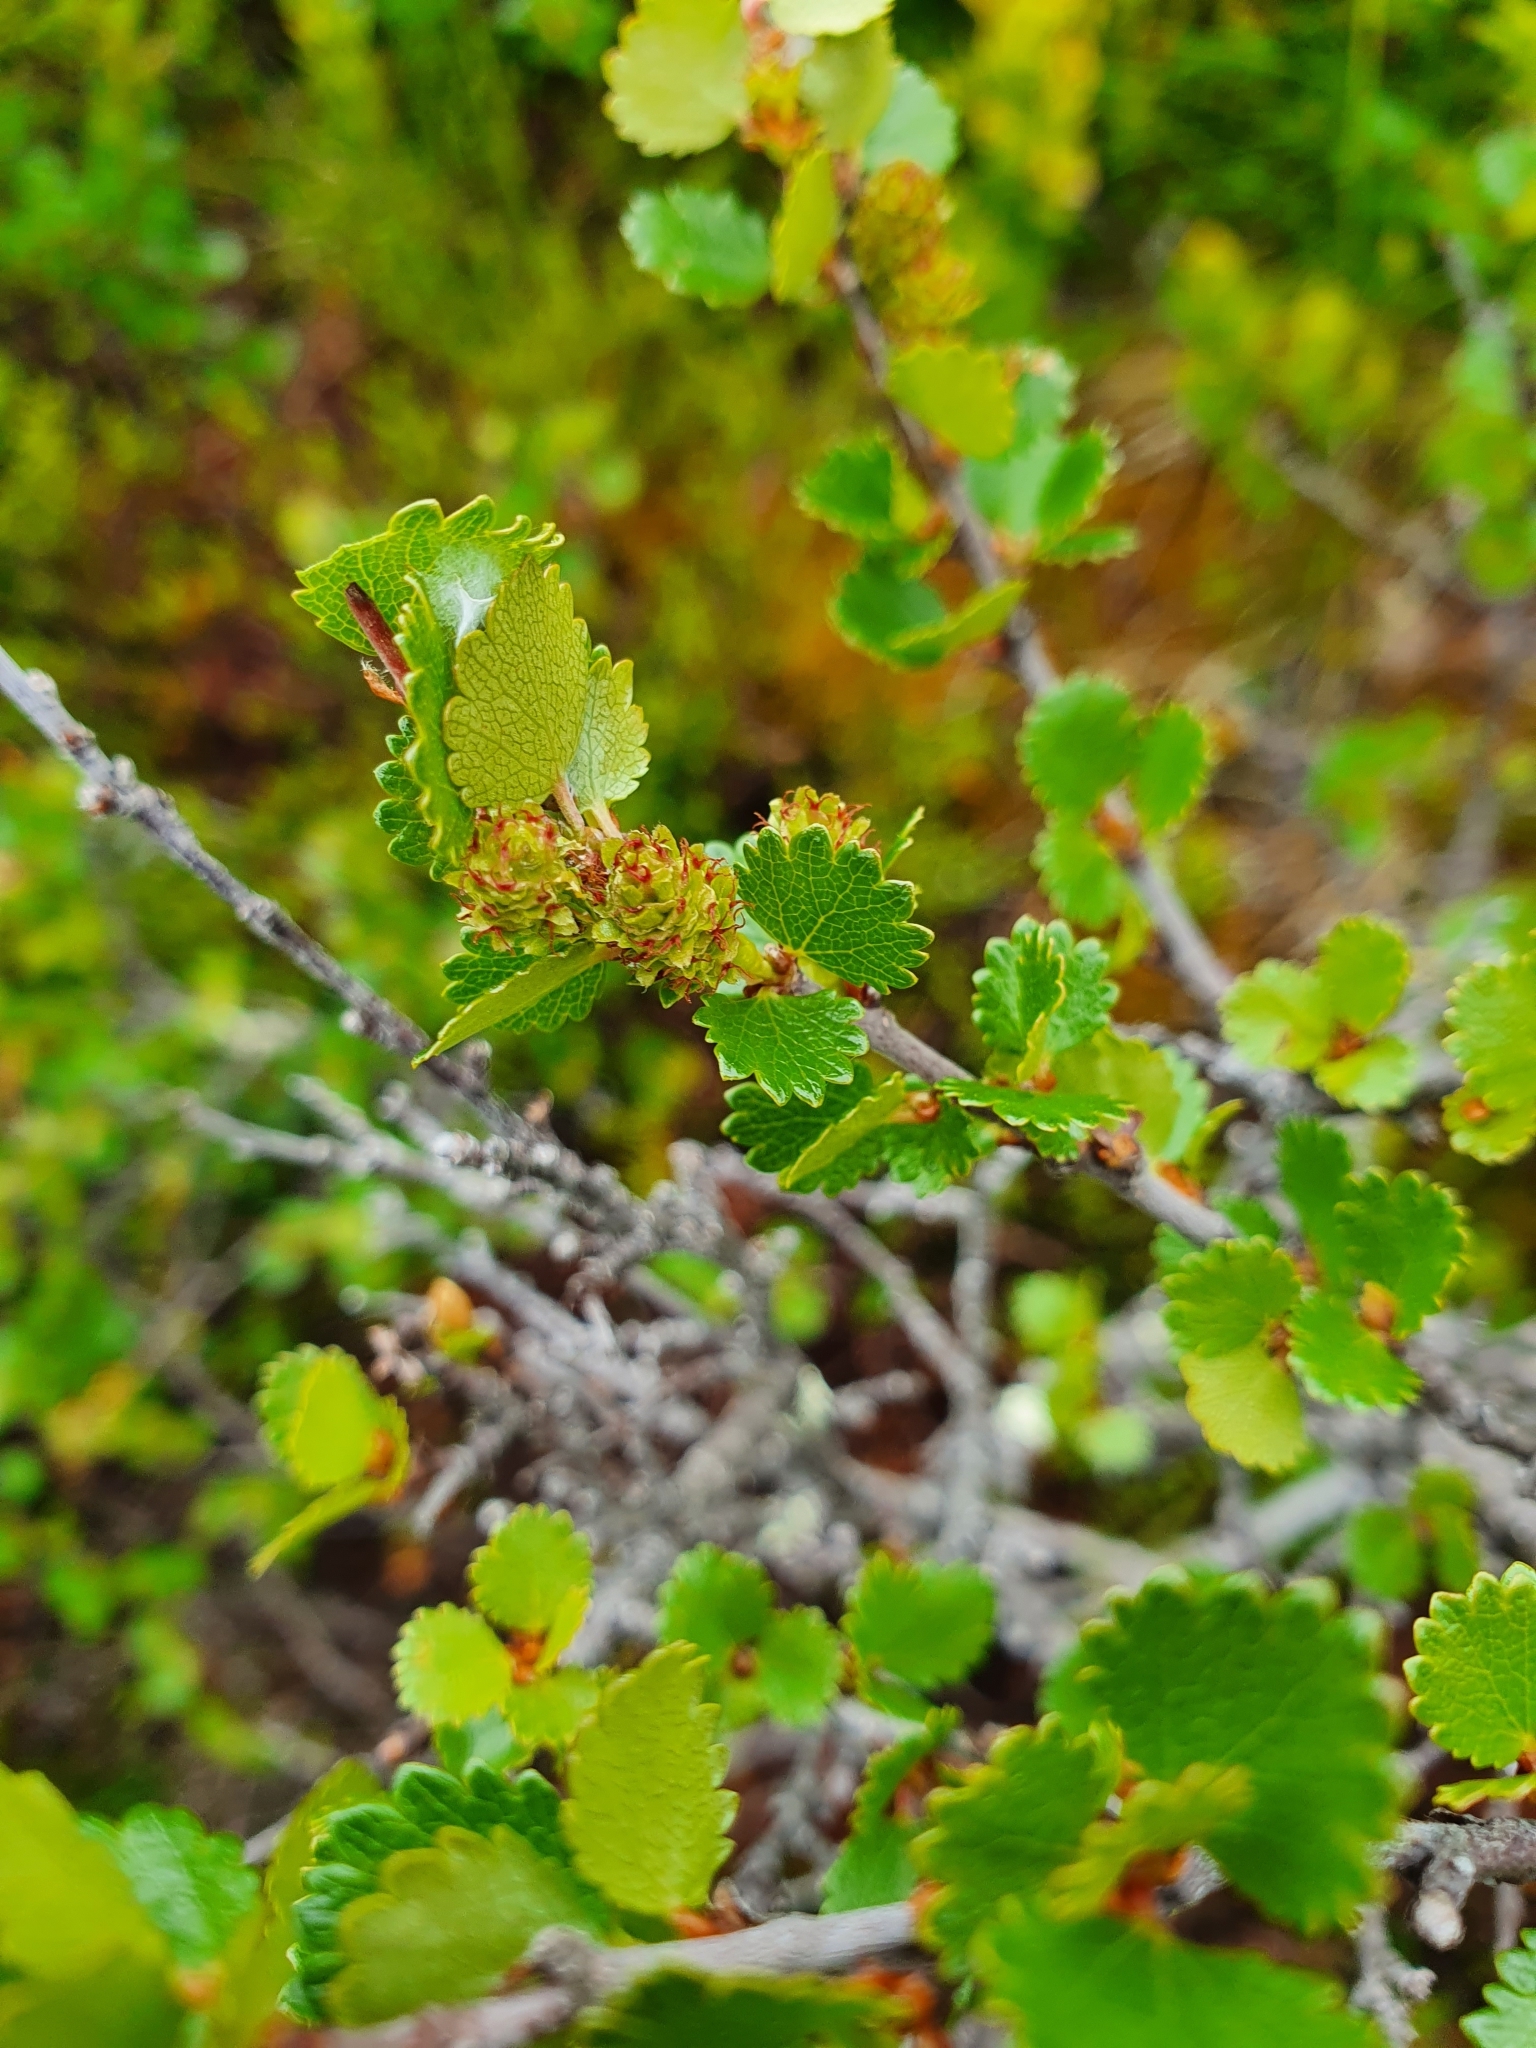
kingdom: Plantae
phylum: Tracheophyta
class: Magnoliopsida
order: Fagales
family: Betulaceae
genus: Betula
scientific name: Betula nana
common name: Arctic dwarf birch
